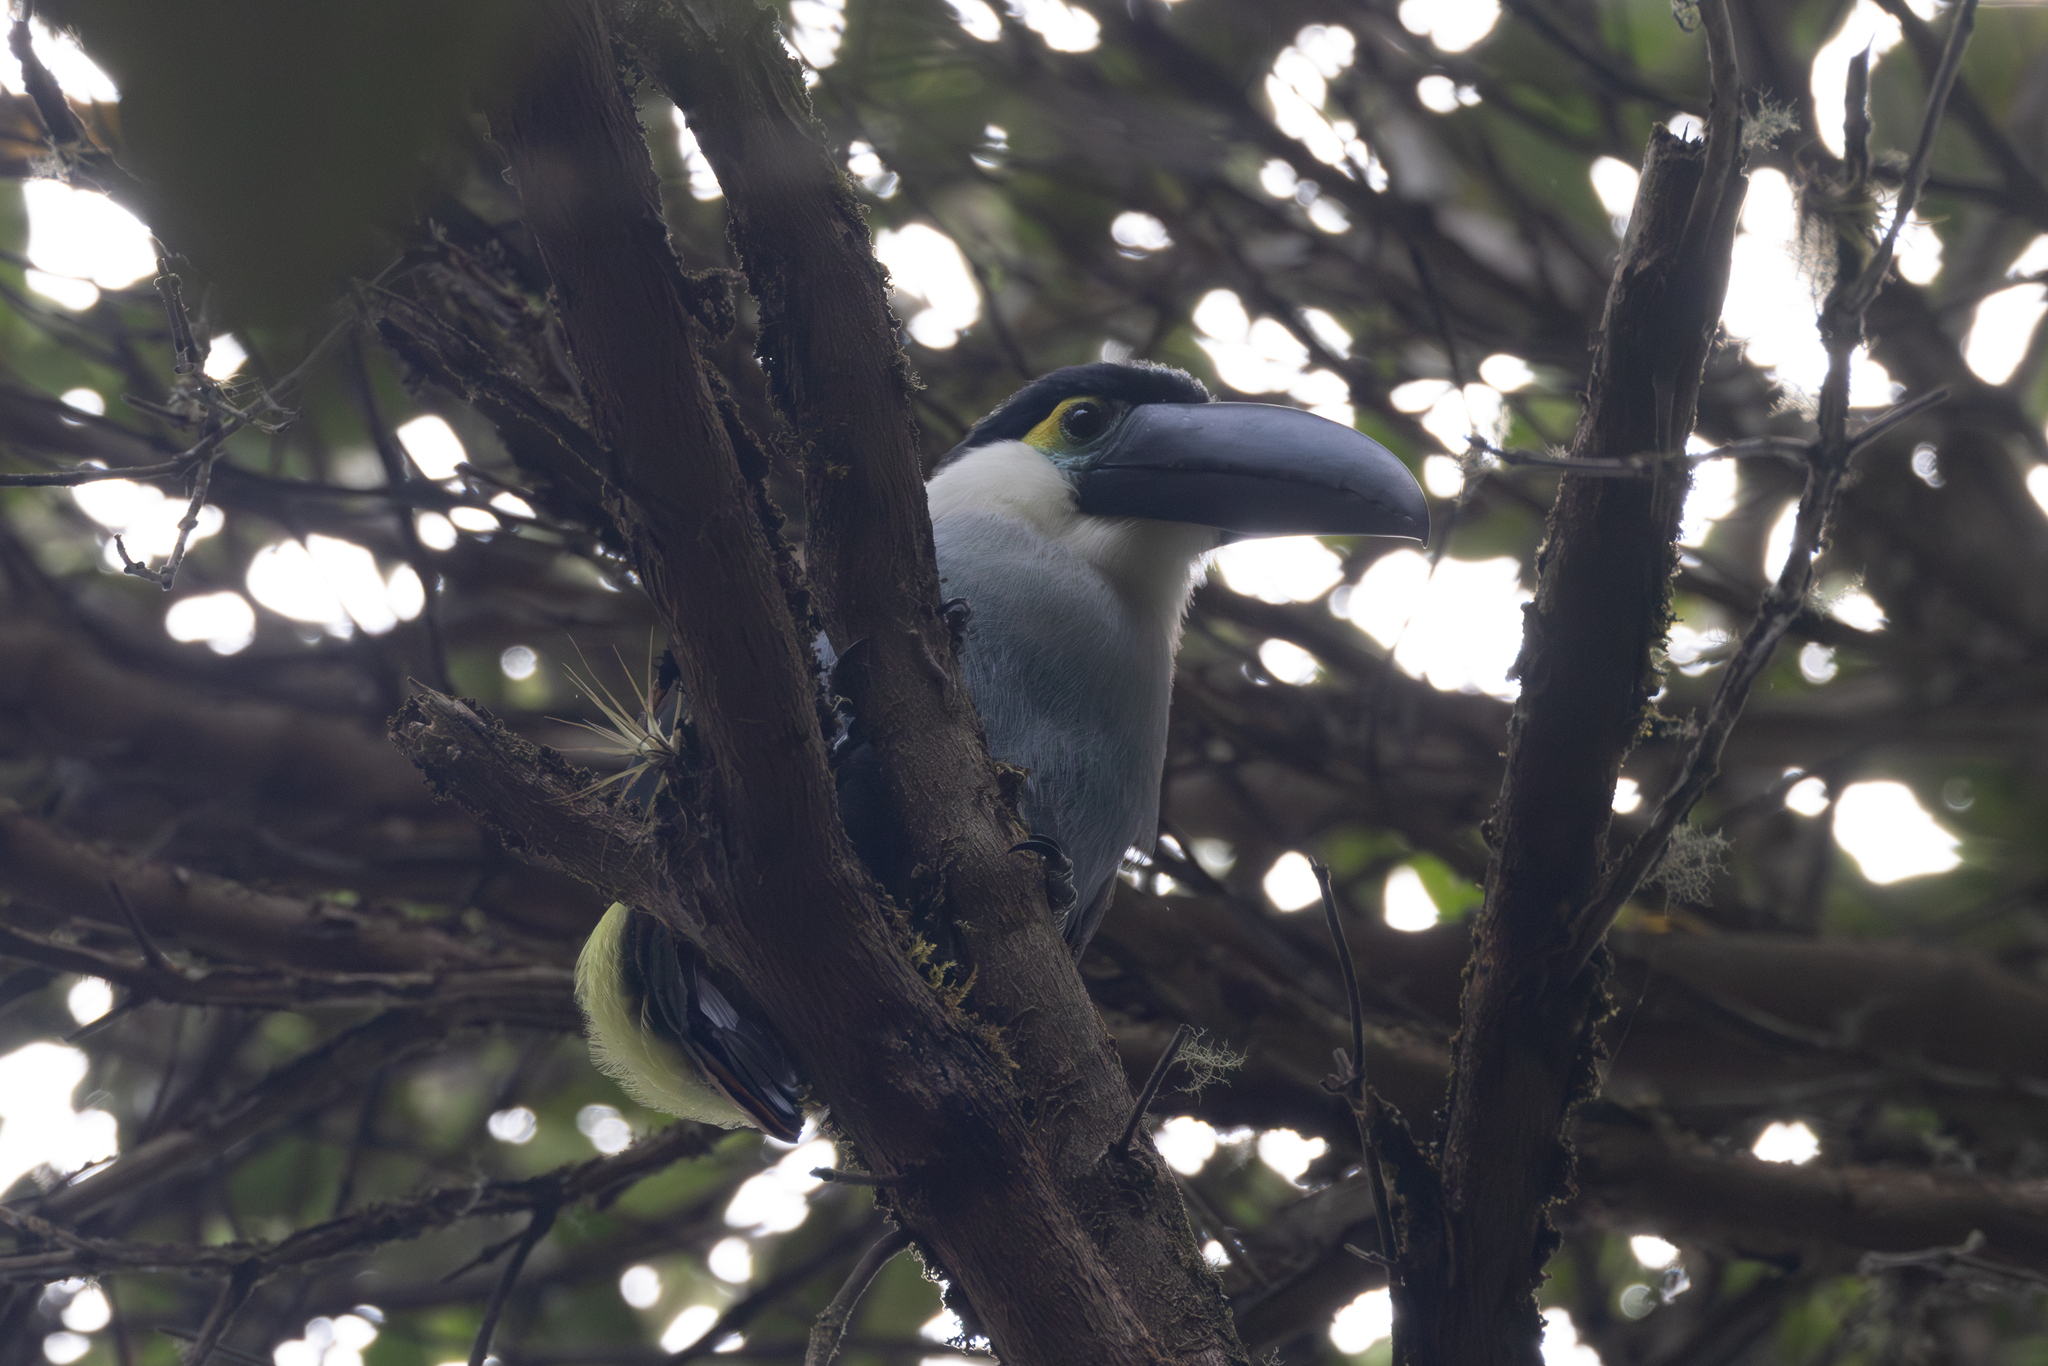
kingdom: Animalia
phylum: Chordata
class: Aves
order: Piciformes
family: Ramphastidae
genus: Andigena
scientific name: Andigena nigrirostris
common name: Black-billed mountain toucan
